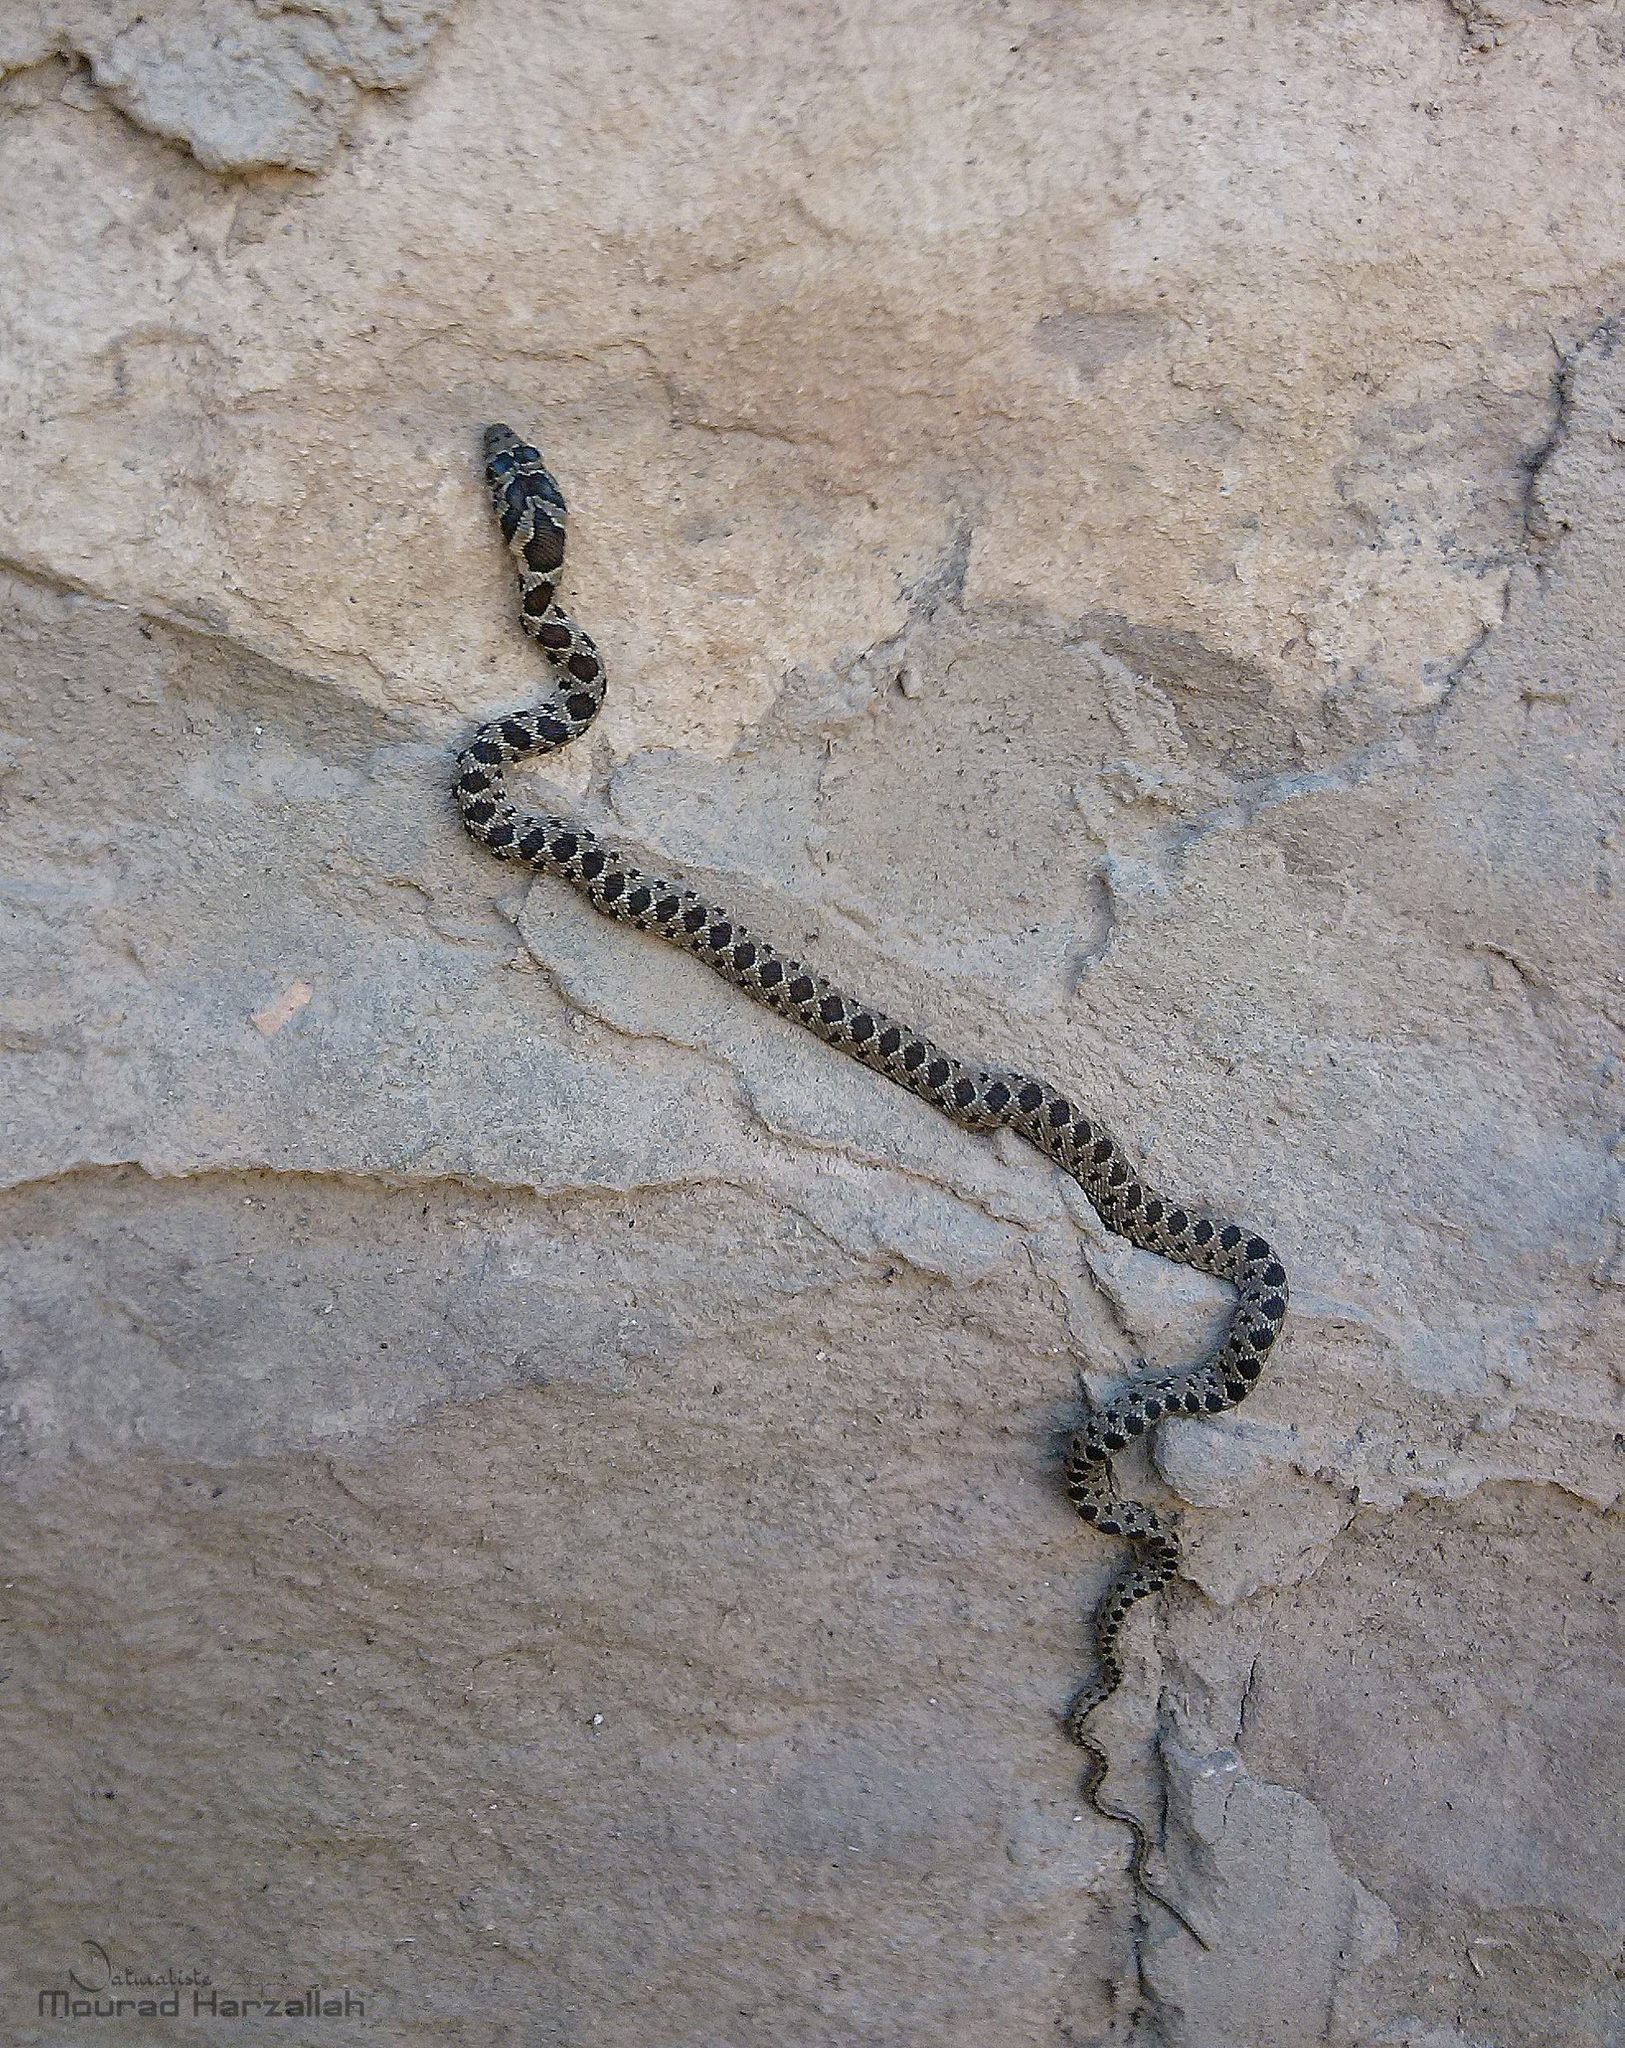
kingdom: Animalia
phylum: Chordata
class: Squamata
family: Colubridae
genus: Hemorrhois
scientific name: Hemorrhois hippocrepis
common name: Horseshoe whip snake
